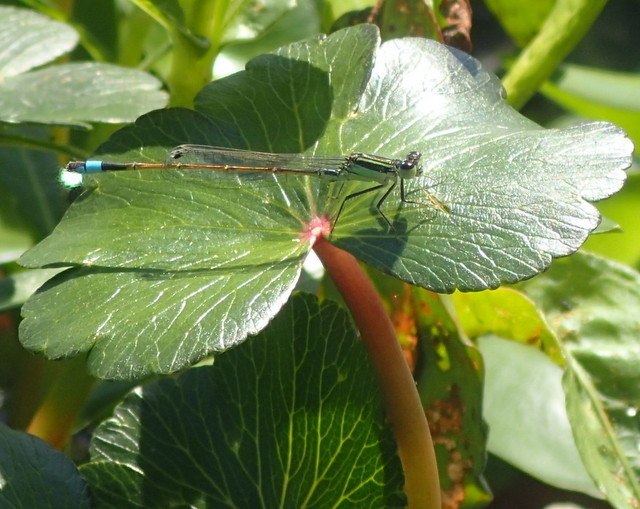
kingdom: Animalia
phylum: Arthropoda
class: Insecta
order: Odonata
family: Coenagrionidae
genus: Ischnura
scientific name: Ischnura ramburii
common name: Rambur's forktail
